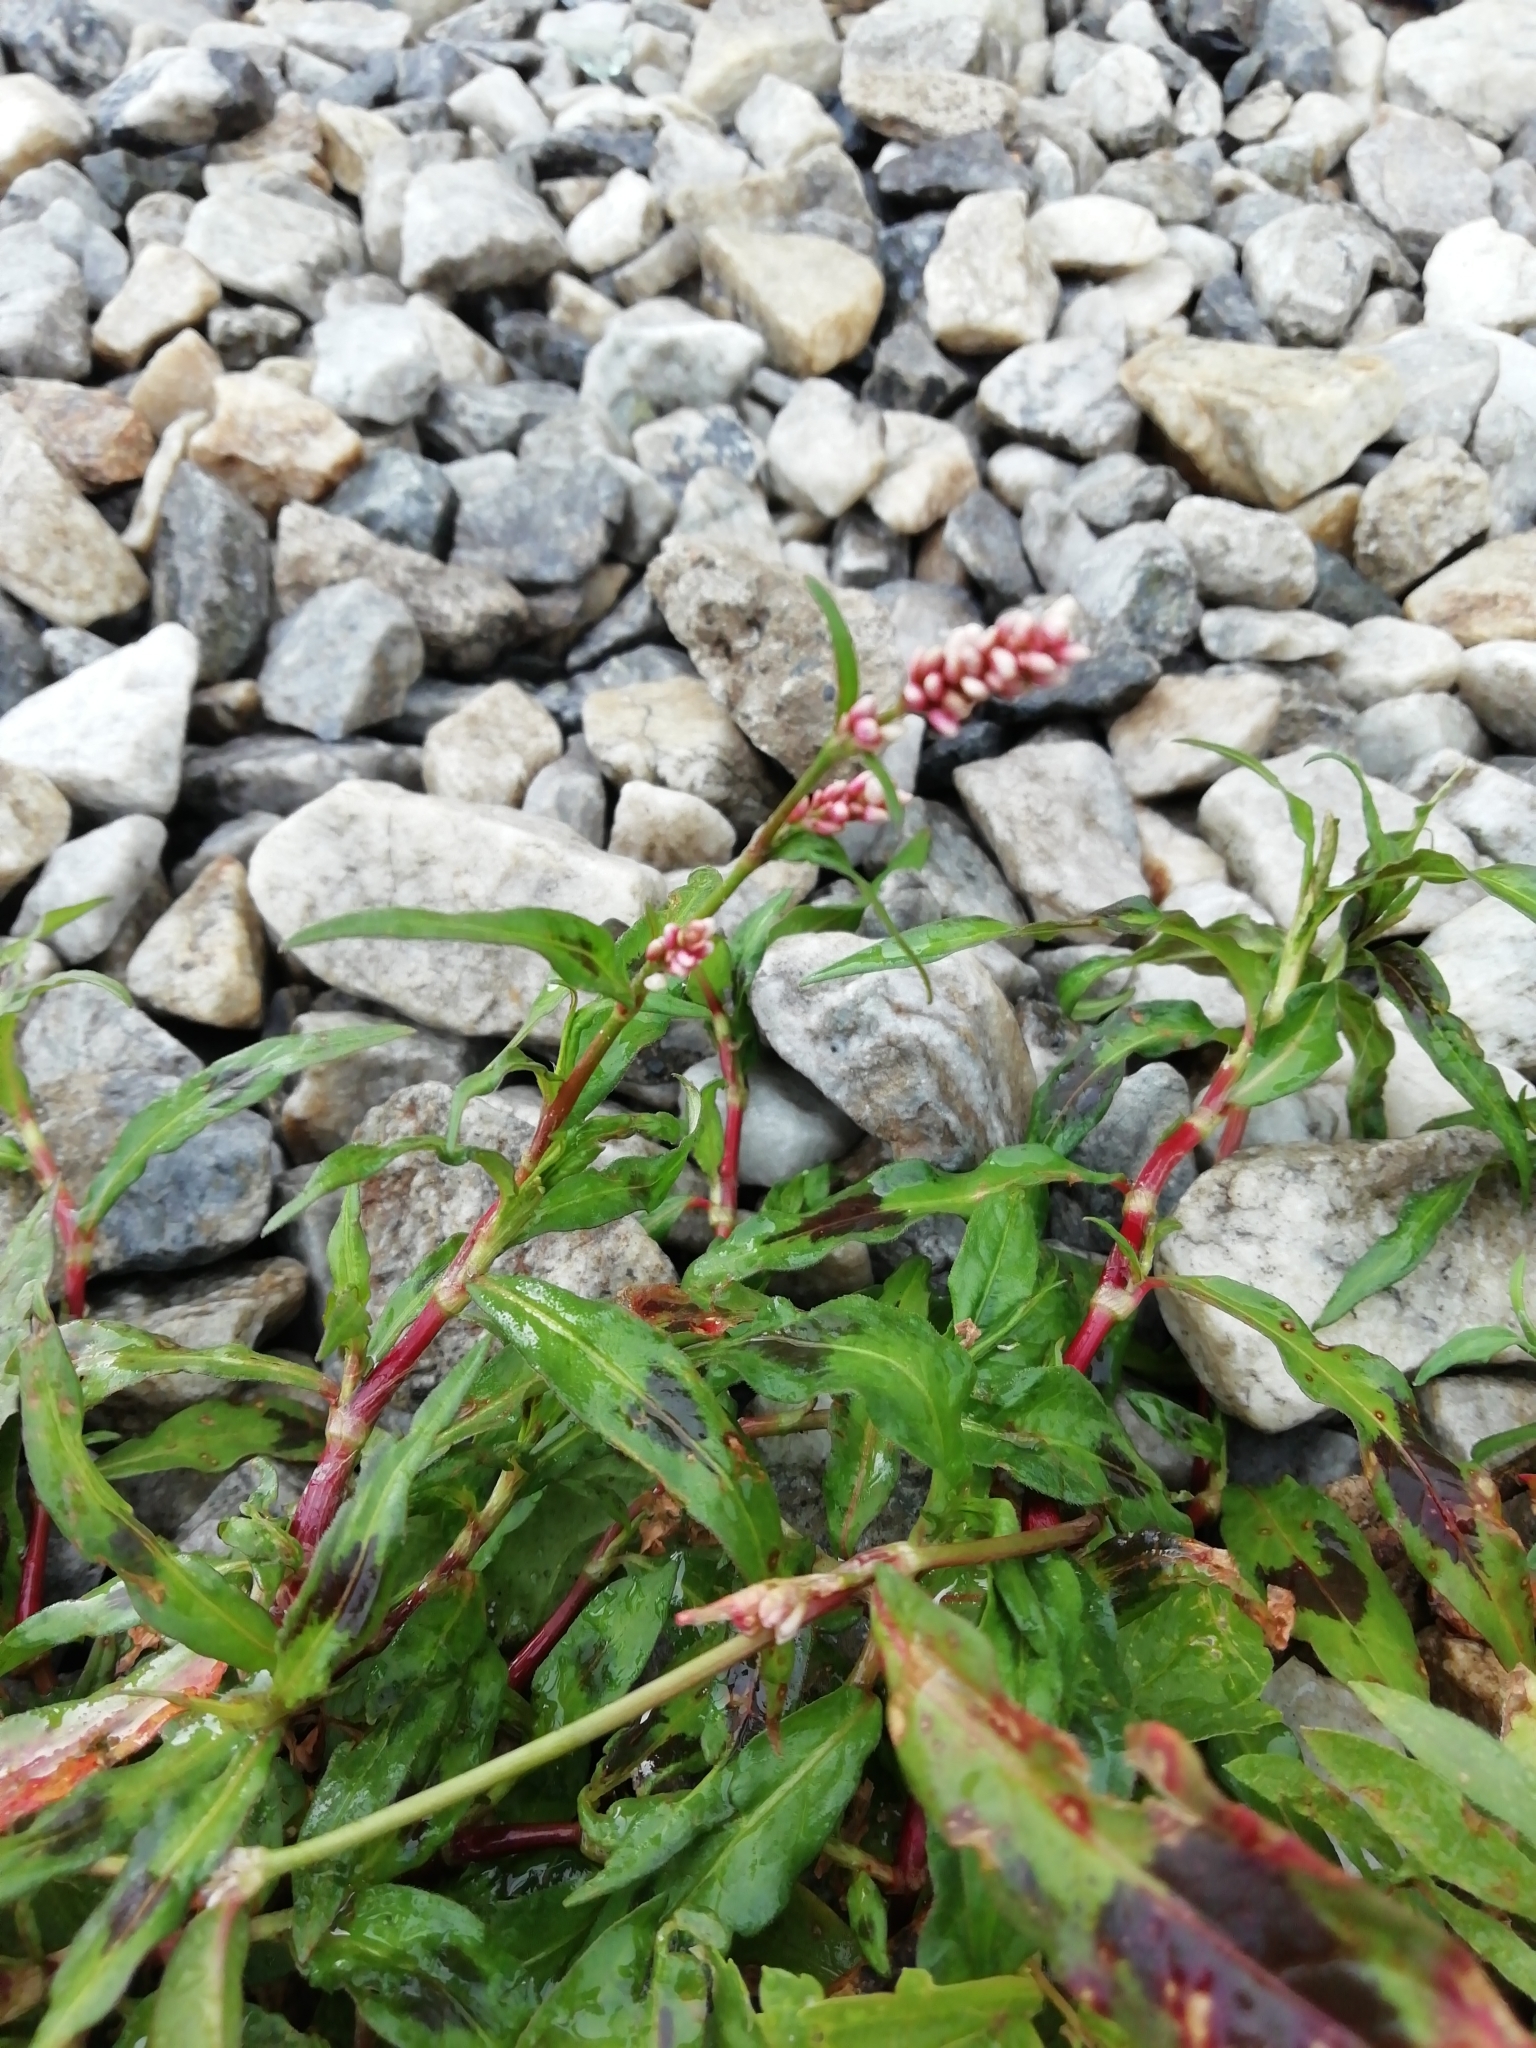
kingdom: Plantae
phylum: Tracheophyta
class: Magnoliopsida
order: Caryophyllales
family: Polygonaceae
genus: Persicaria
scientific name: Persicaria maculosa
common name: Redshank
